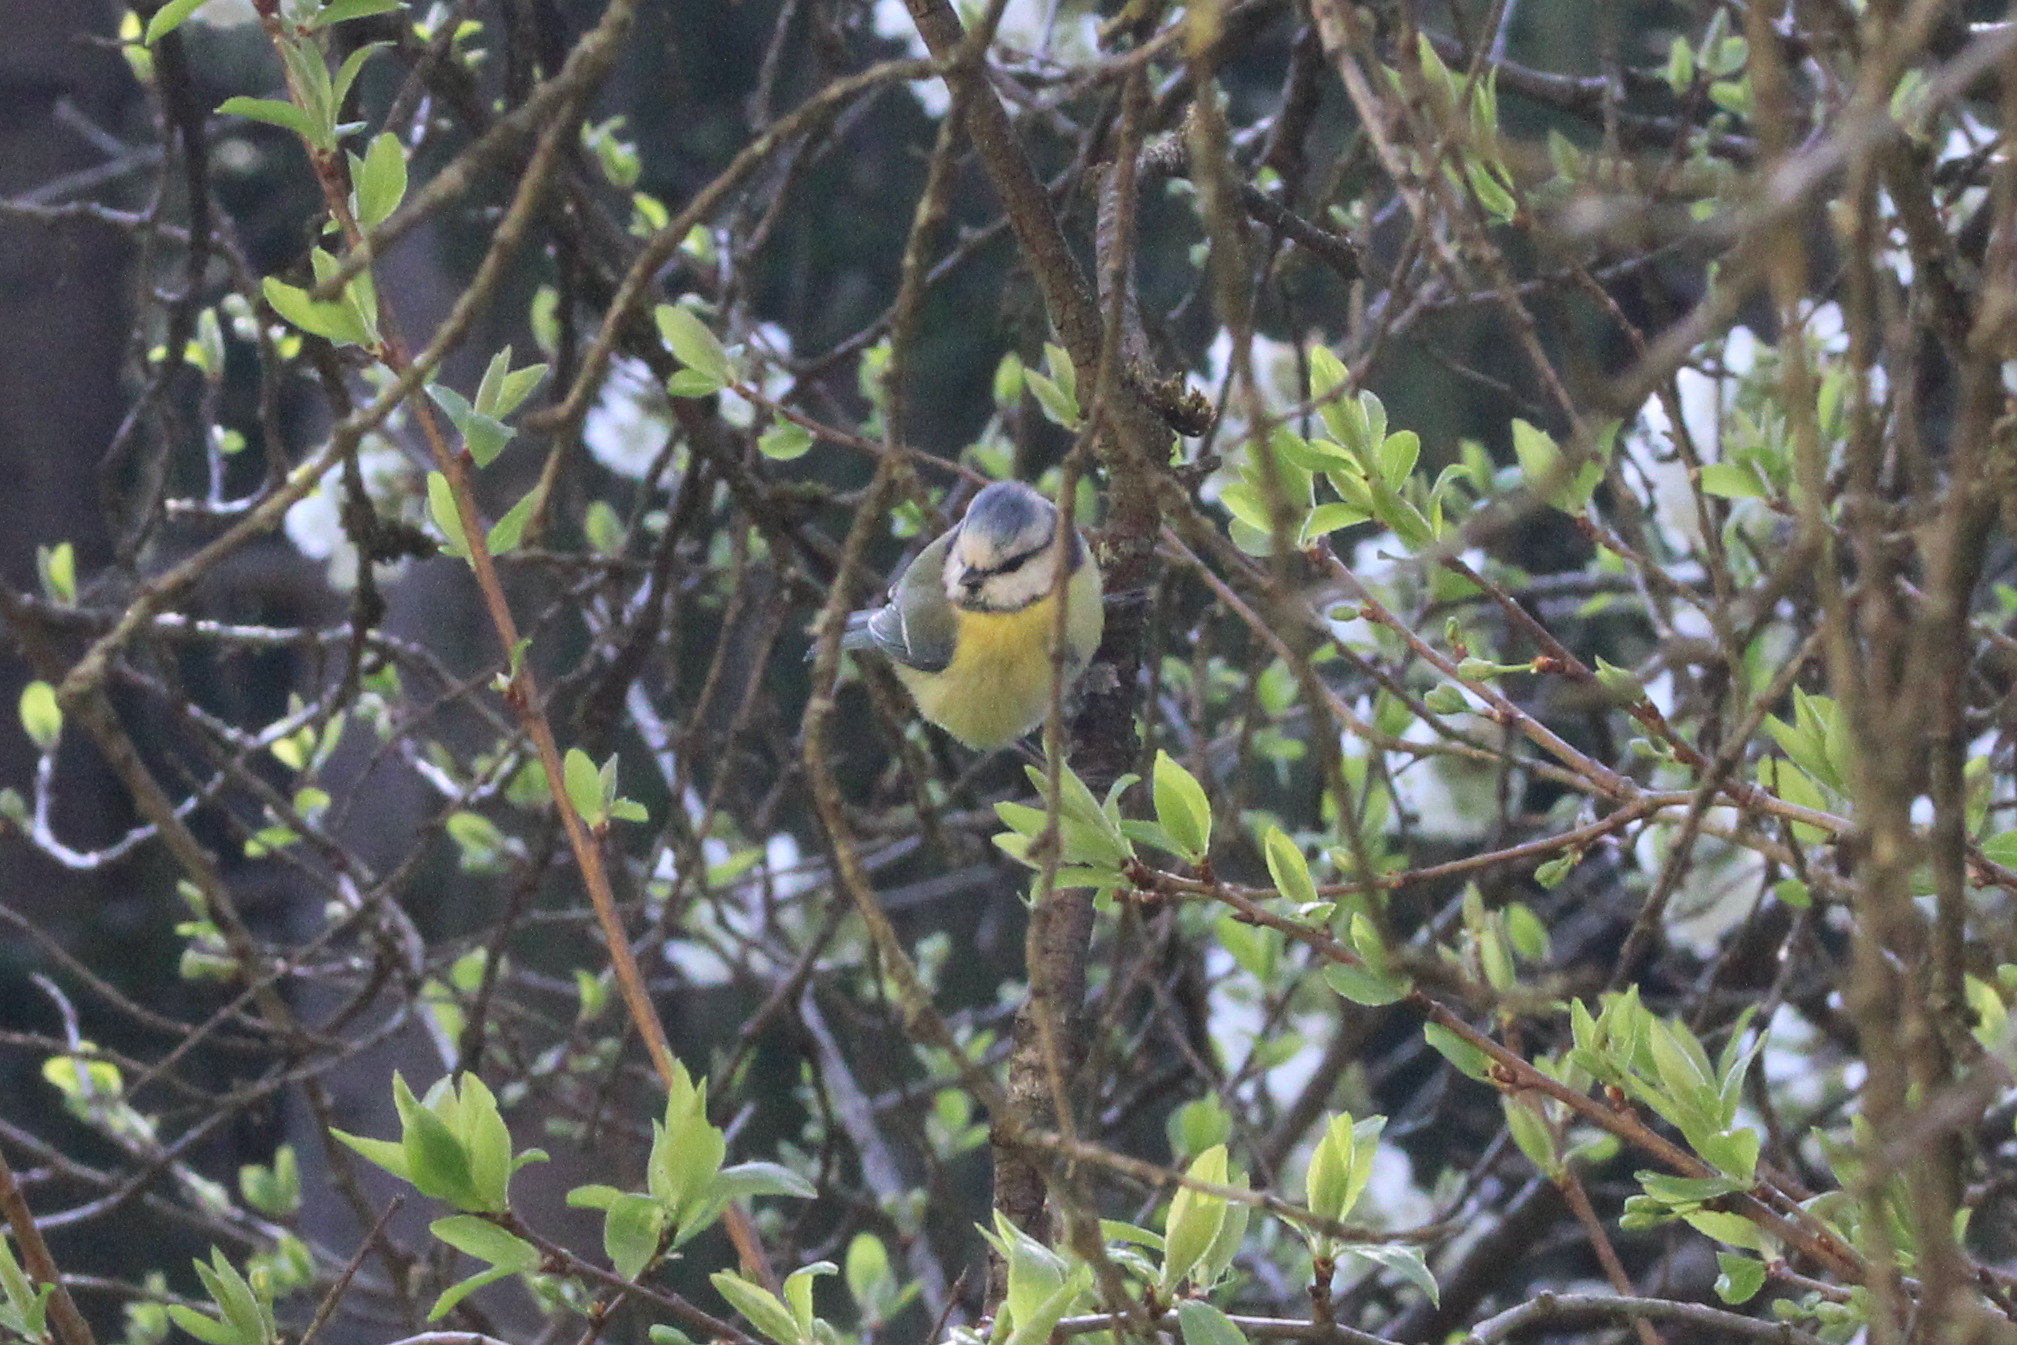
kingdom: Animalia
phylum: Chordata
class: Aves
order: Passeriformes
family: Paridae
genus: Cyanistes
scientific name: Cyanistes caeruleus
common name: Eurasian blue tit
